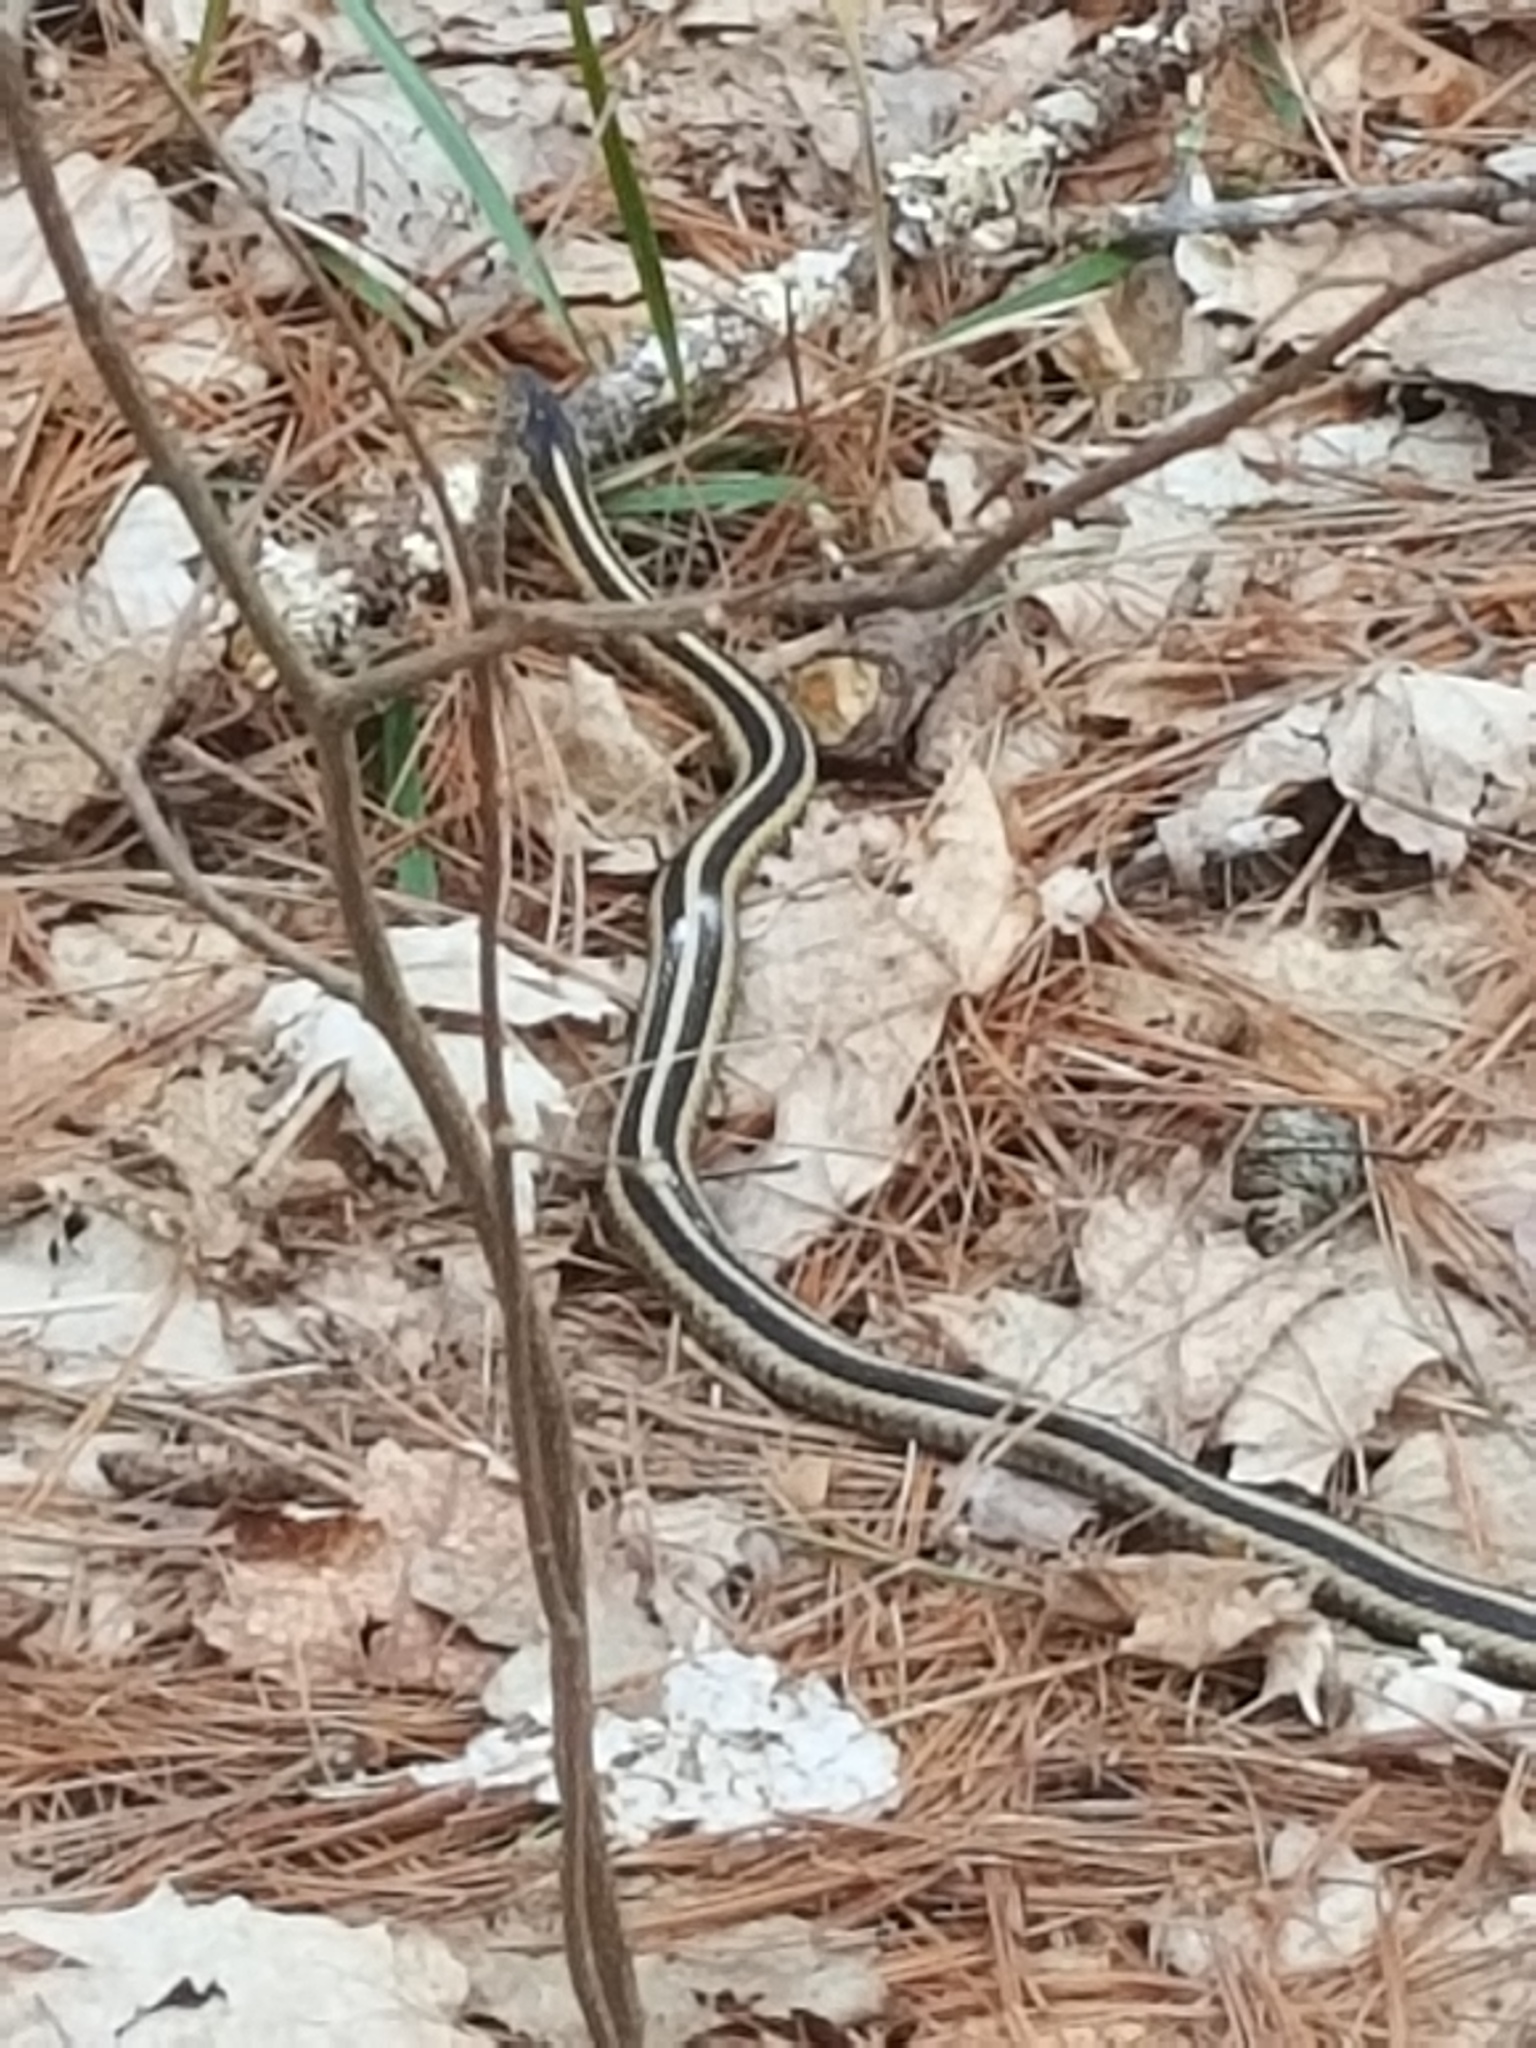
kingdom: Animalia
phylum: Chordata
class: Squamata
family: Colubridae
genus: Thamnophis
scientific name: Thamnophis sirtalis
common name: Common garter snake
